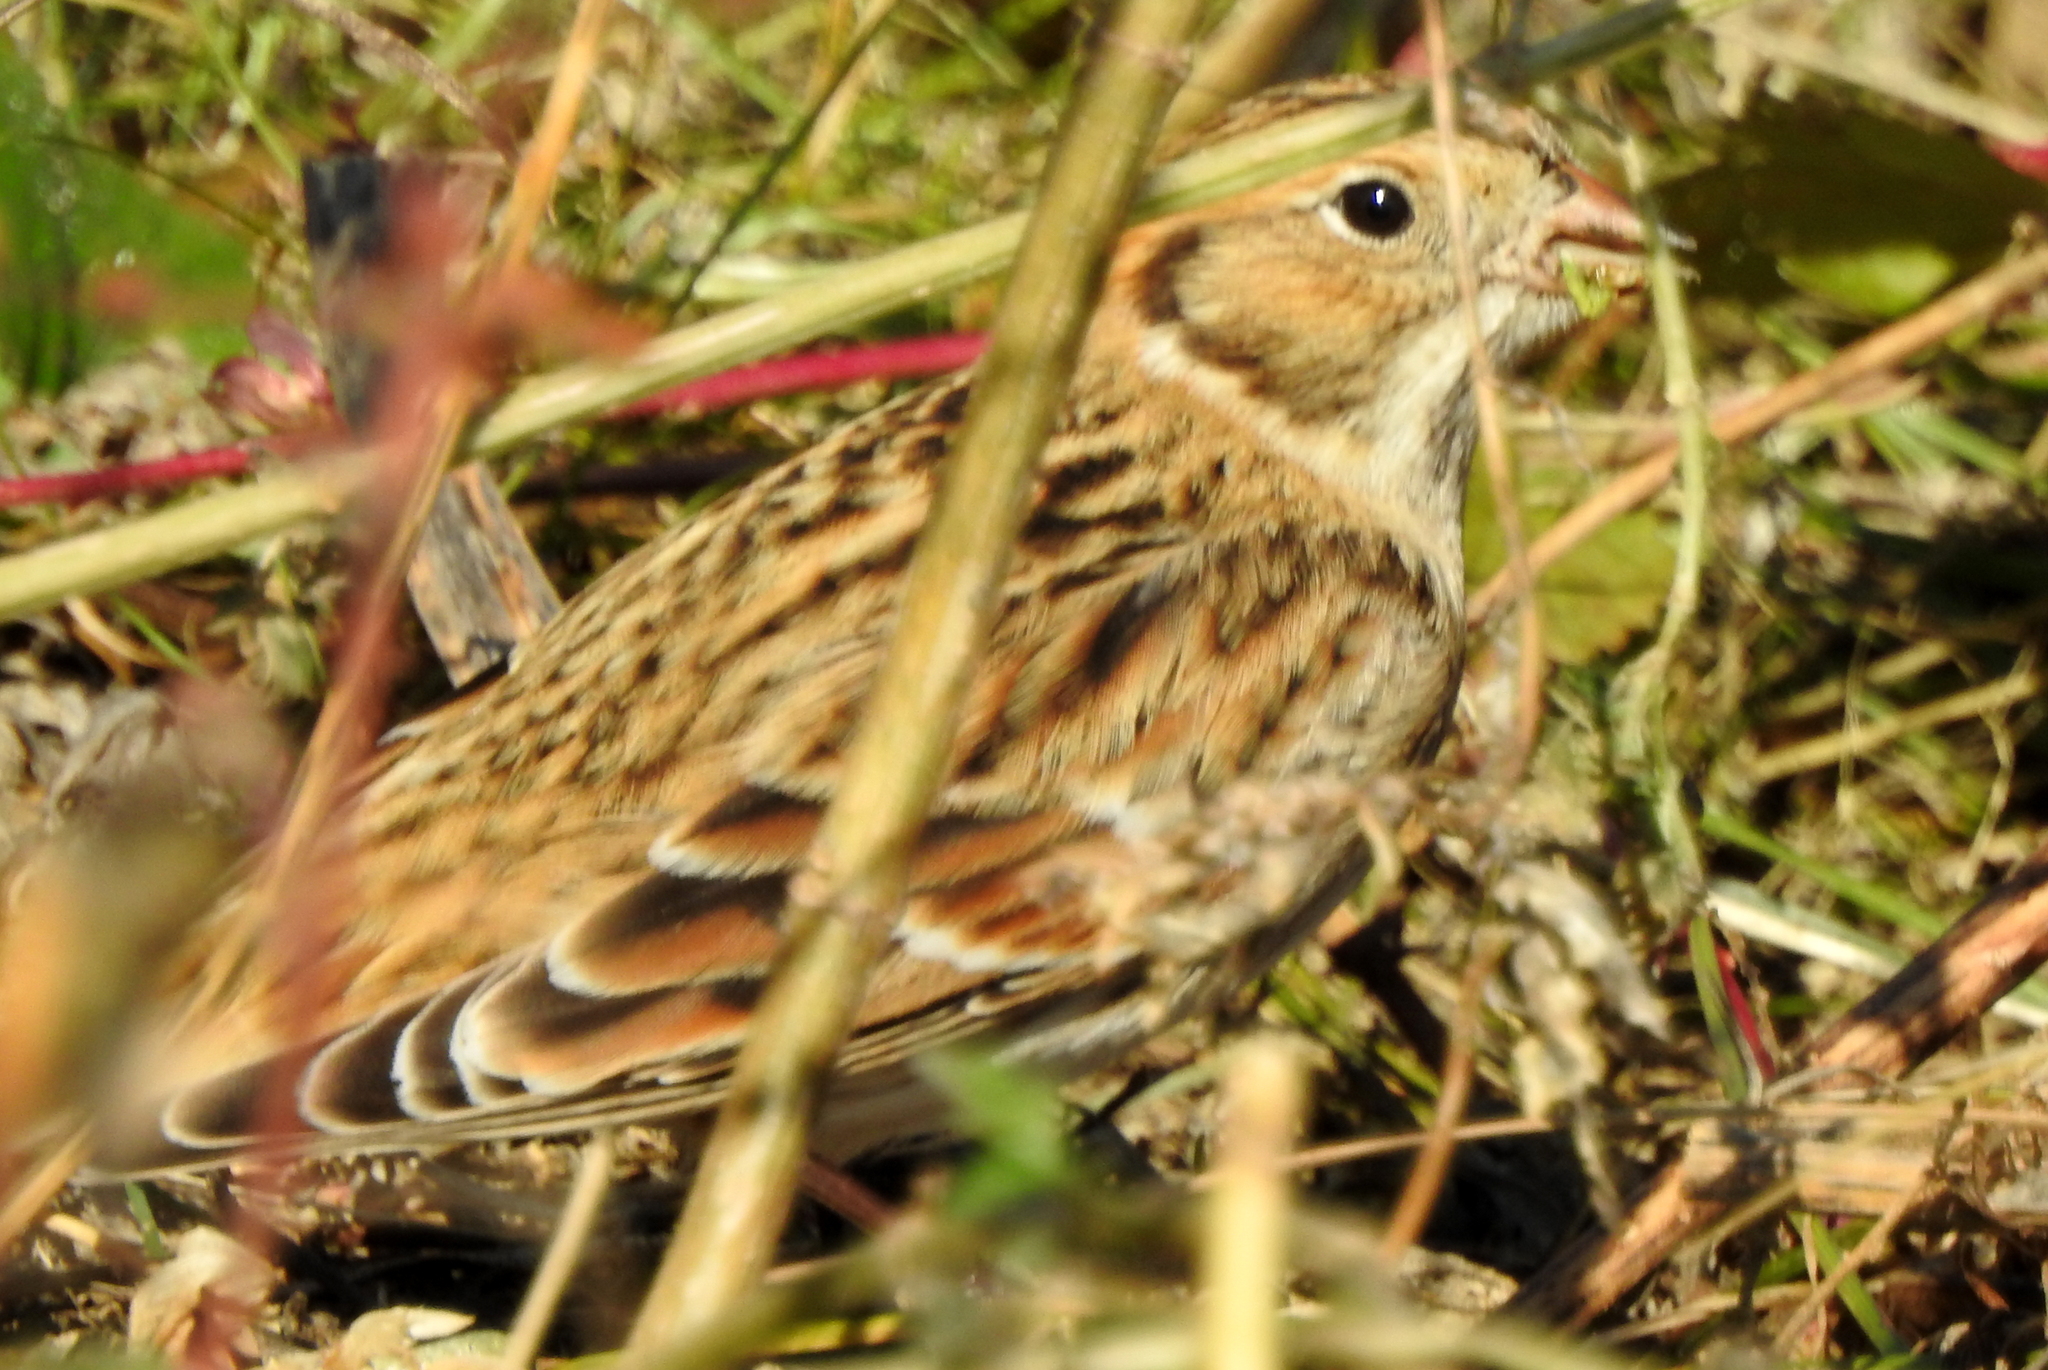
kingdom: Animalia
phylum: Chordata
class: Aves
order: Passeriformes
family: Calcariidae
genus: Calcarius
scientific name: Calcarius lapponicus
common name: Lapland longspur
